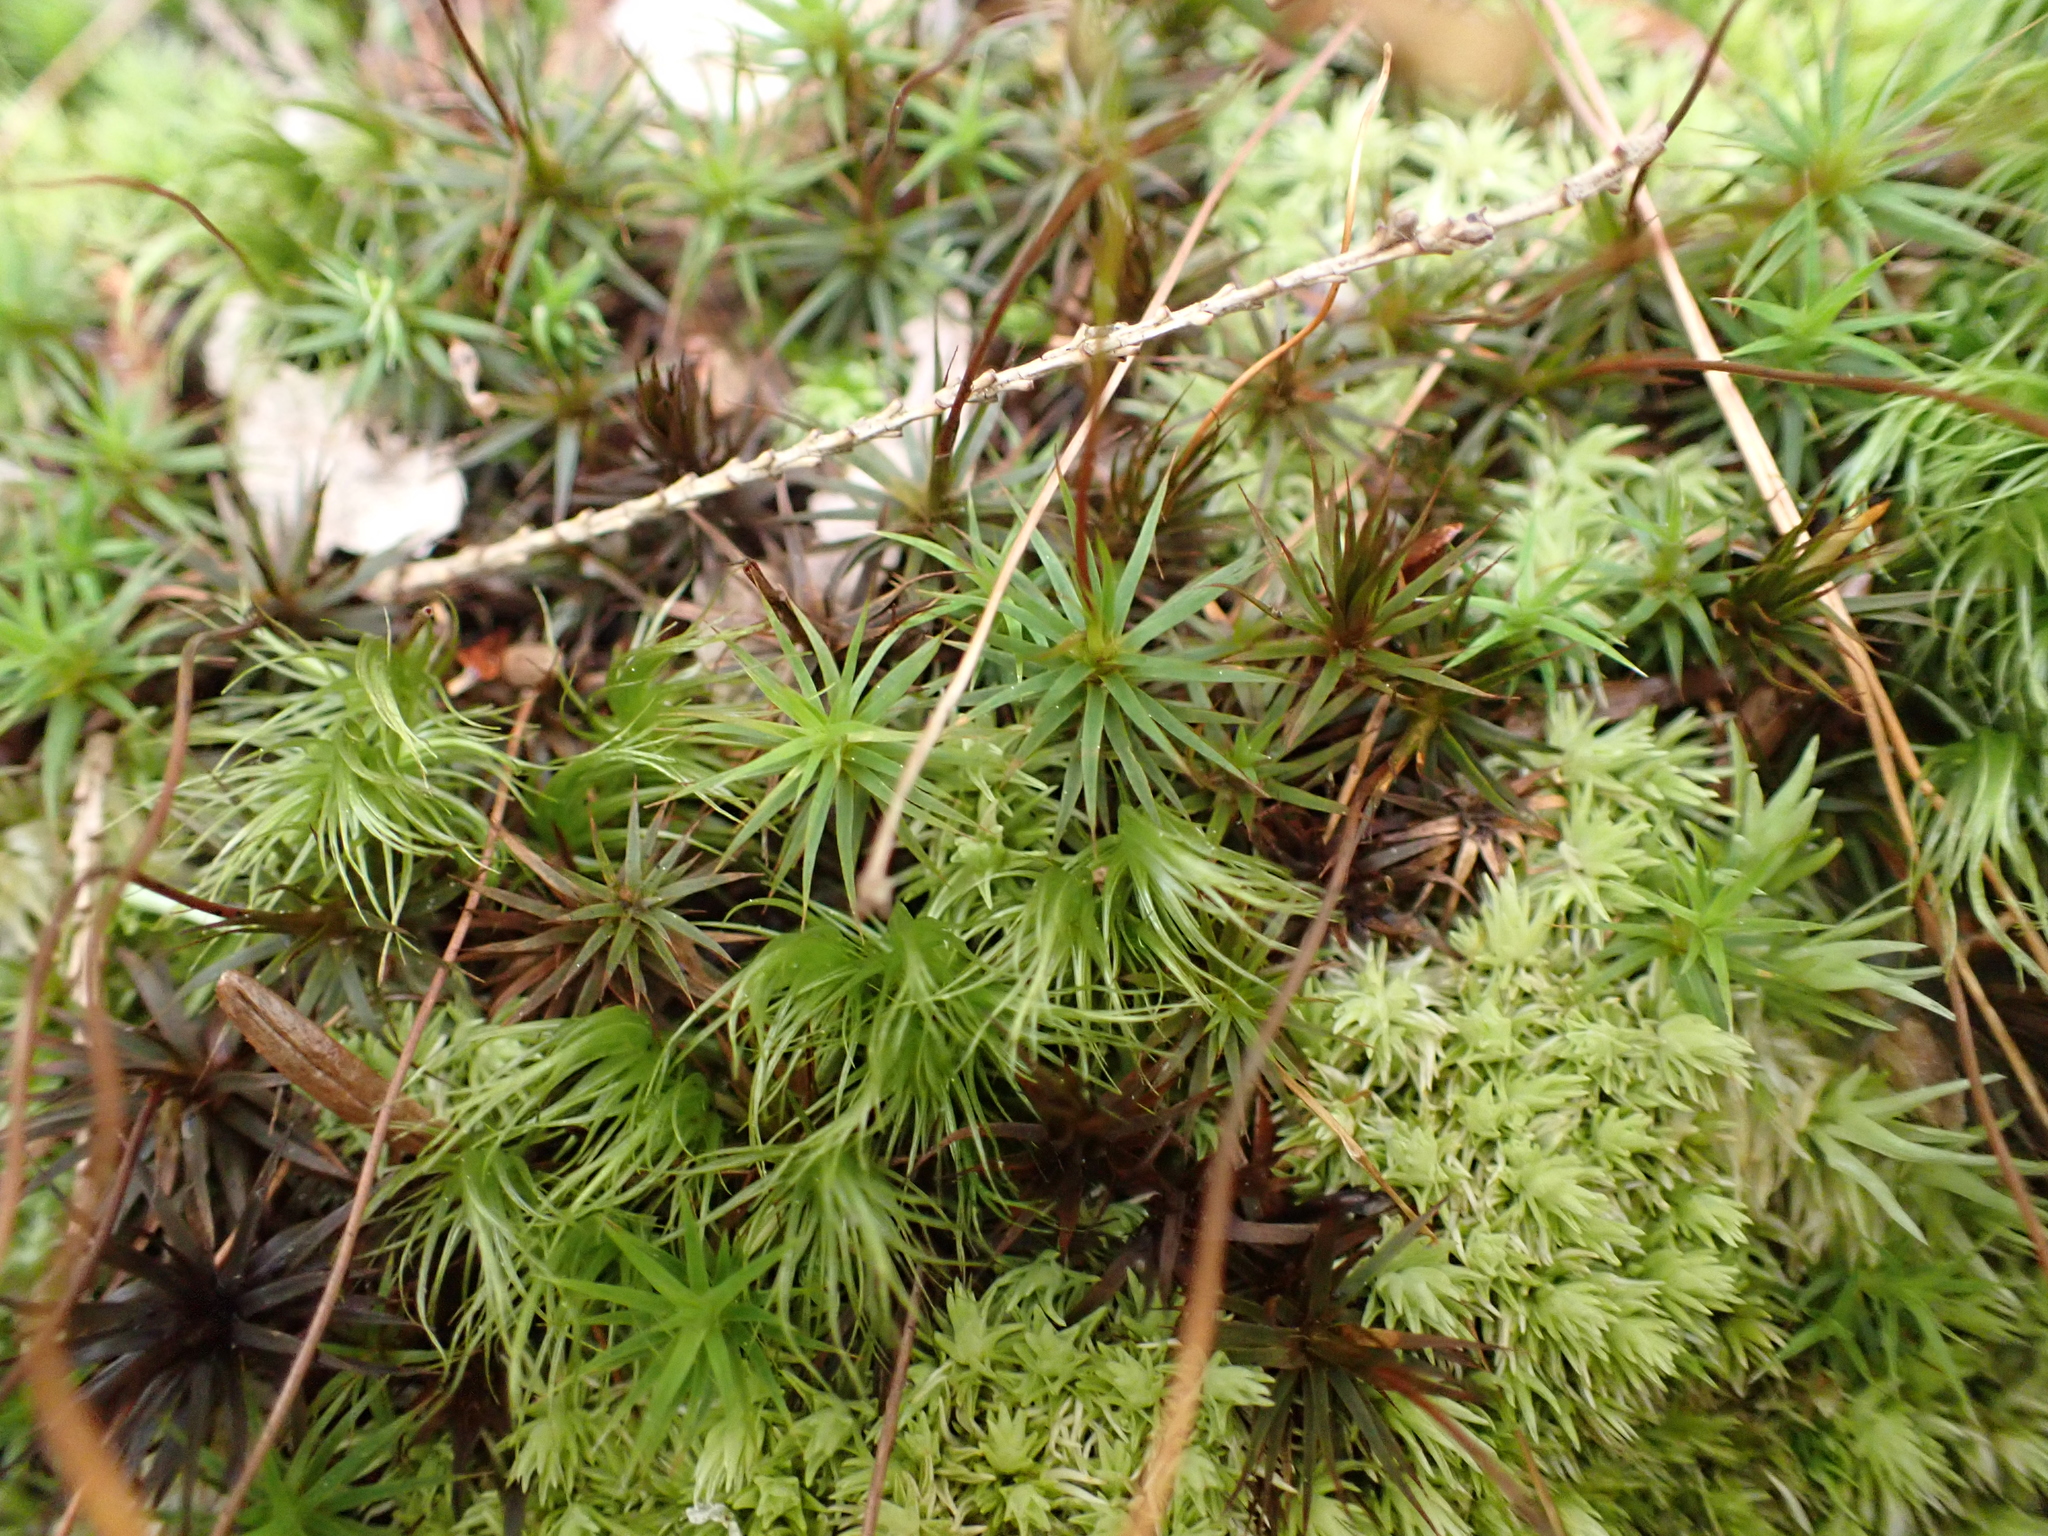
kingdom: Plantae
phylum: Bryophyta
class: Polytrichopsida
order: Polytrichales
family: Polytrichaceae
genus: Polytrichum
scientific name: Polytrichum ohioense
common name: Ohio polytrichum moss
